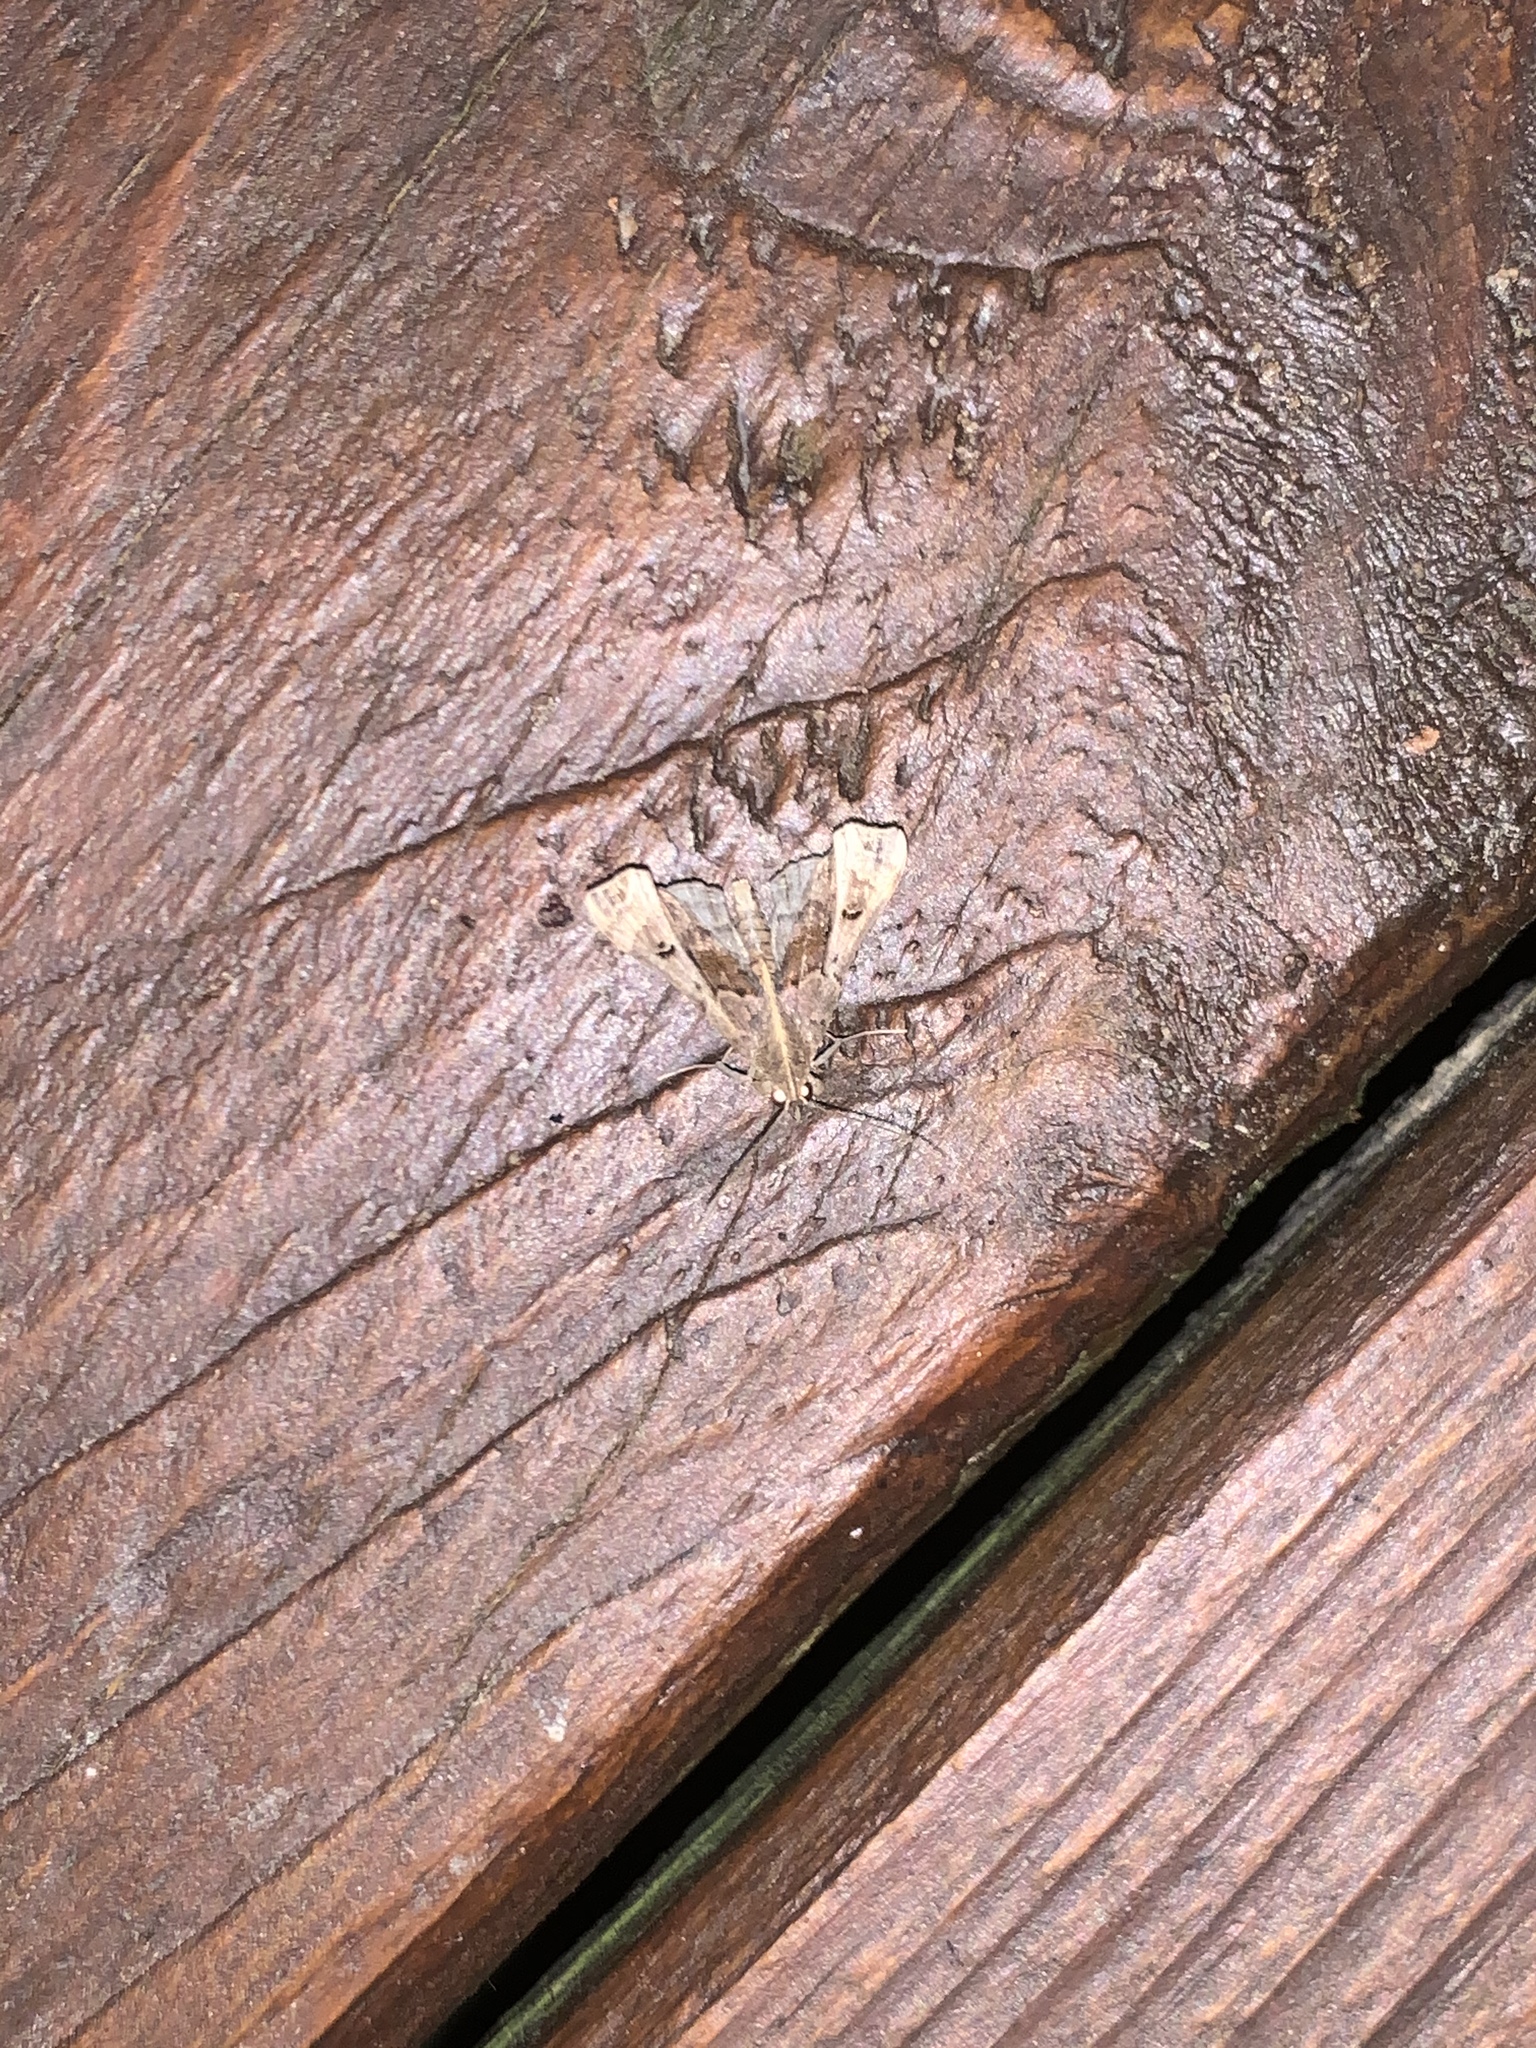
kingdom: Animalia
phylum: Arthropoda
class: Insecta
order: Lepidoptera
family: Erebidae
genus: Palthis
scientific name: Palthis asopialis
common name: Faint-spotted palthis moth
